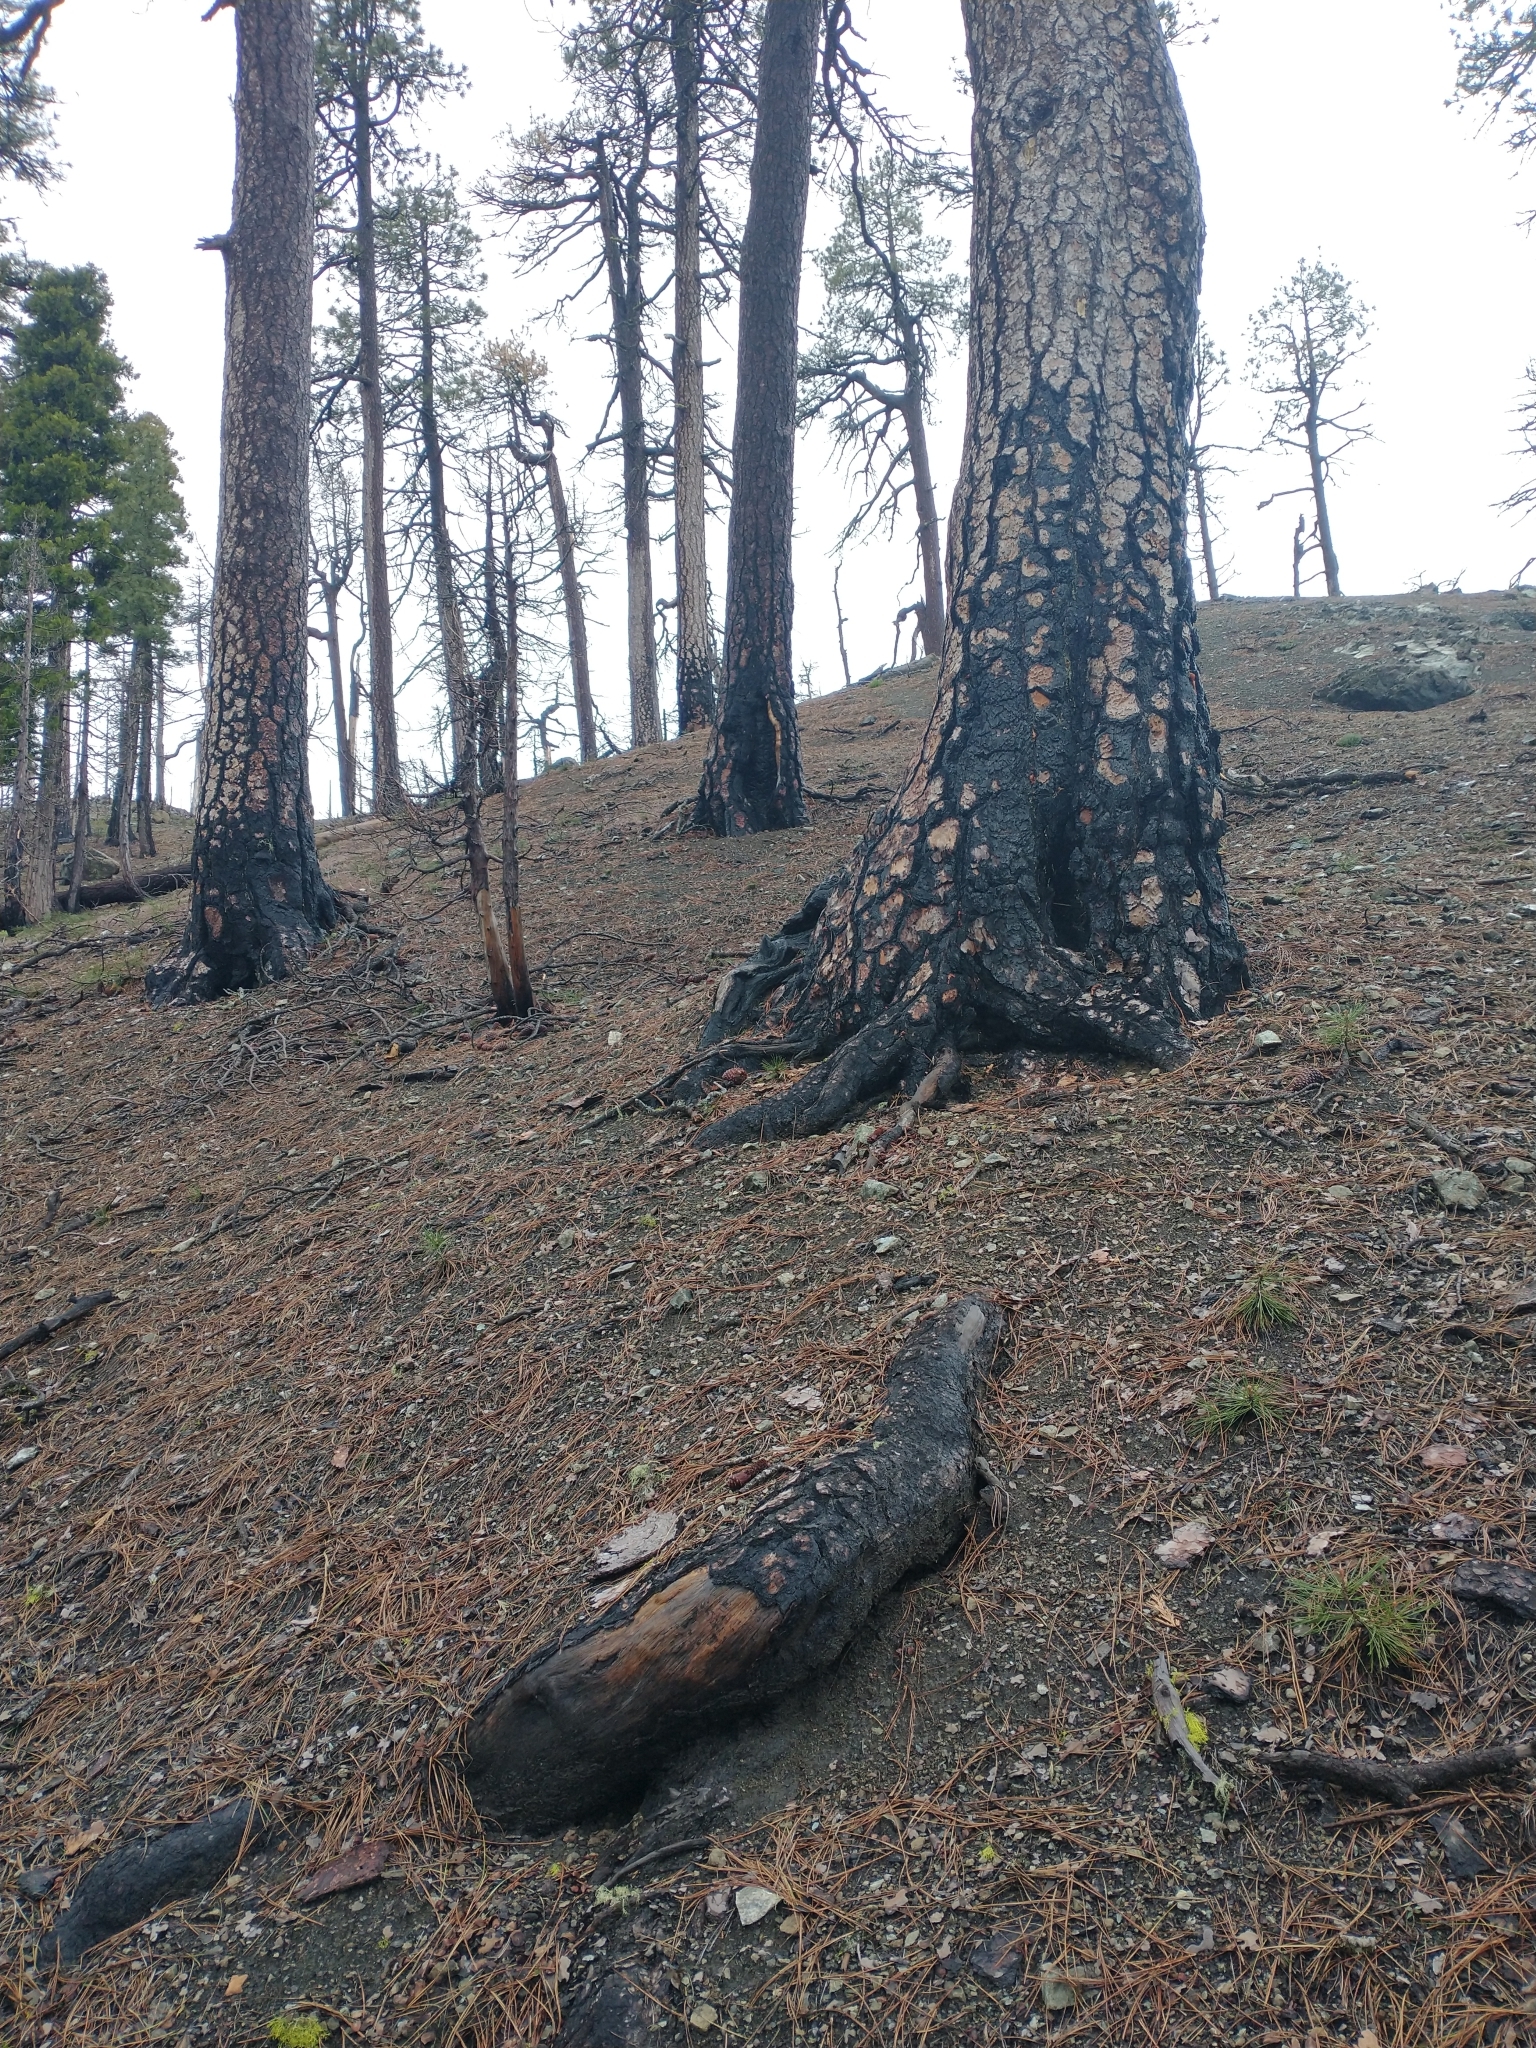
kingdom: Plantae
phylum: Tracheophyta
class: Pinopsida
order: Pinales
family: Pinaceae
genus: Pinus
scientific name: Pinus jeffreyi
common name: Jeffrey pine
